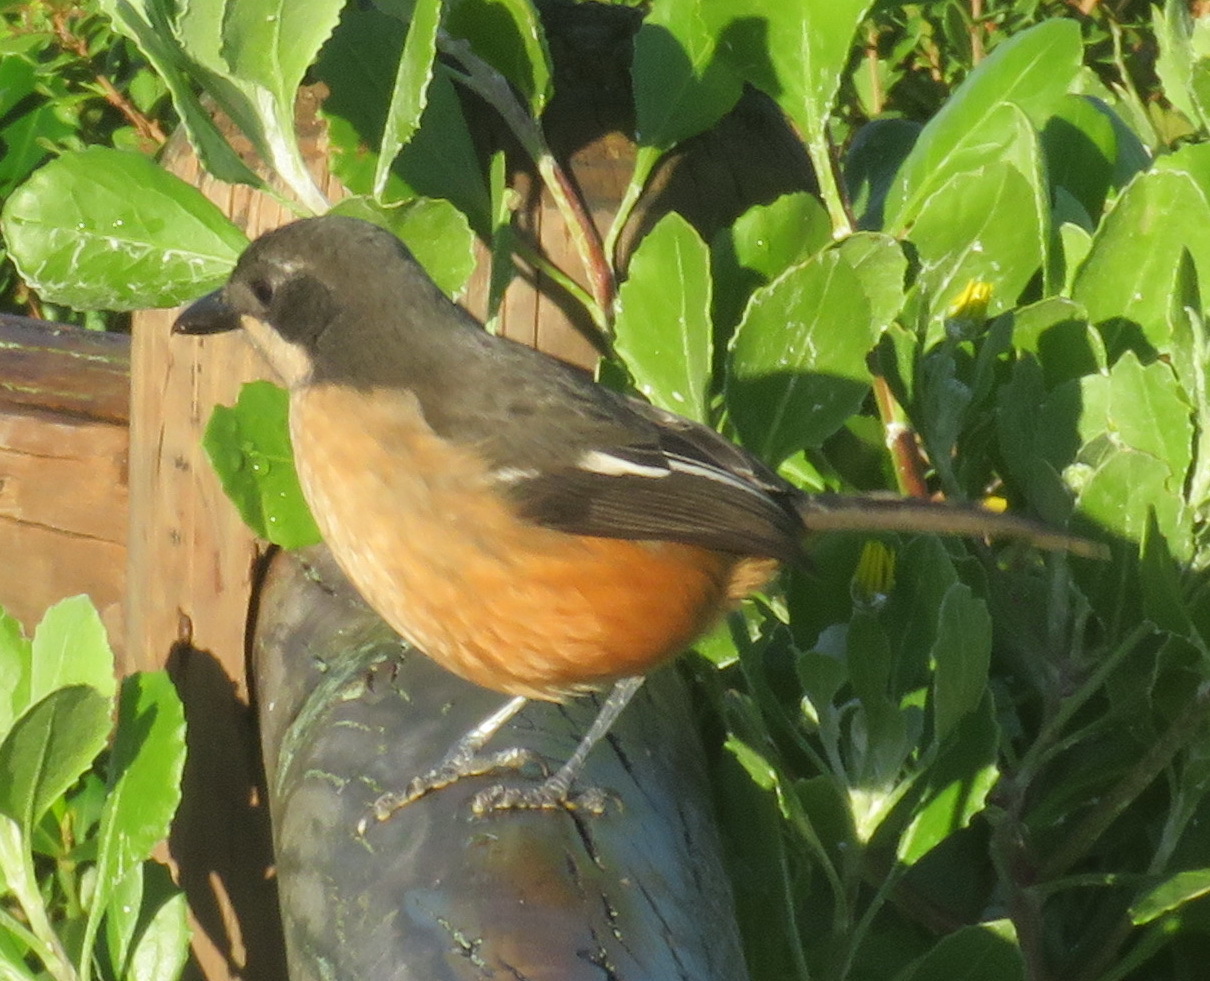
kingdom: Animalia
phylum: Chordata
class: Aves
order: Passeriformes
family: Malaconotidae
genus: Laniarius
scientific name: Laniarius ferrugineus
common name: Southern boubou
